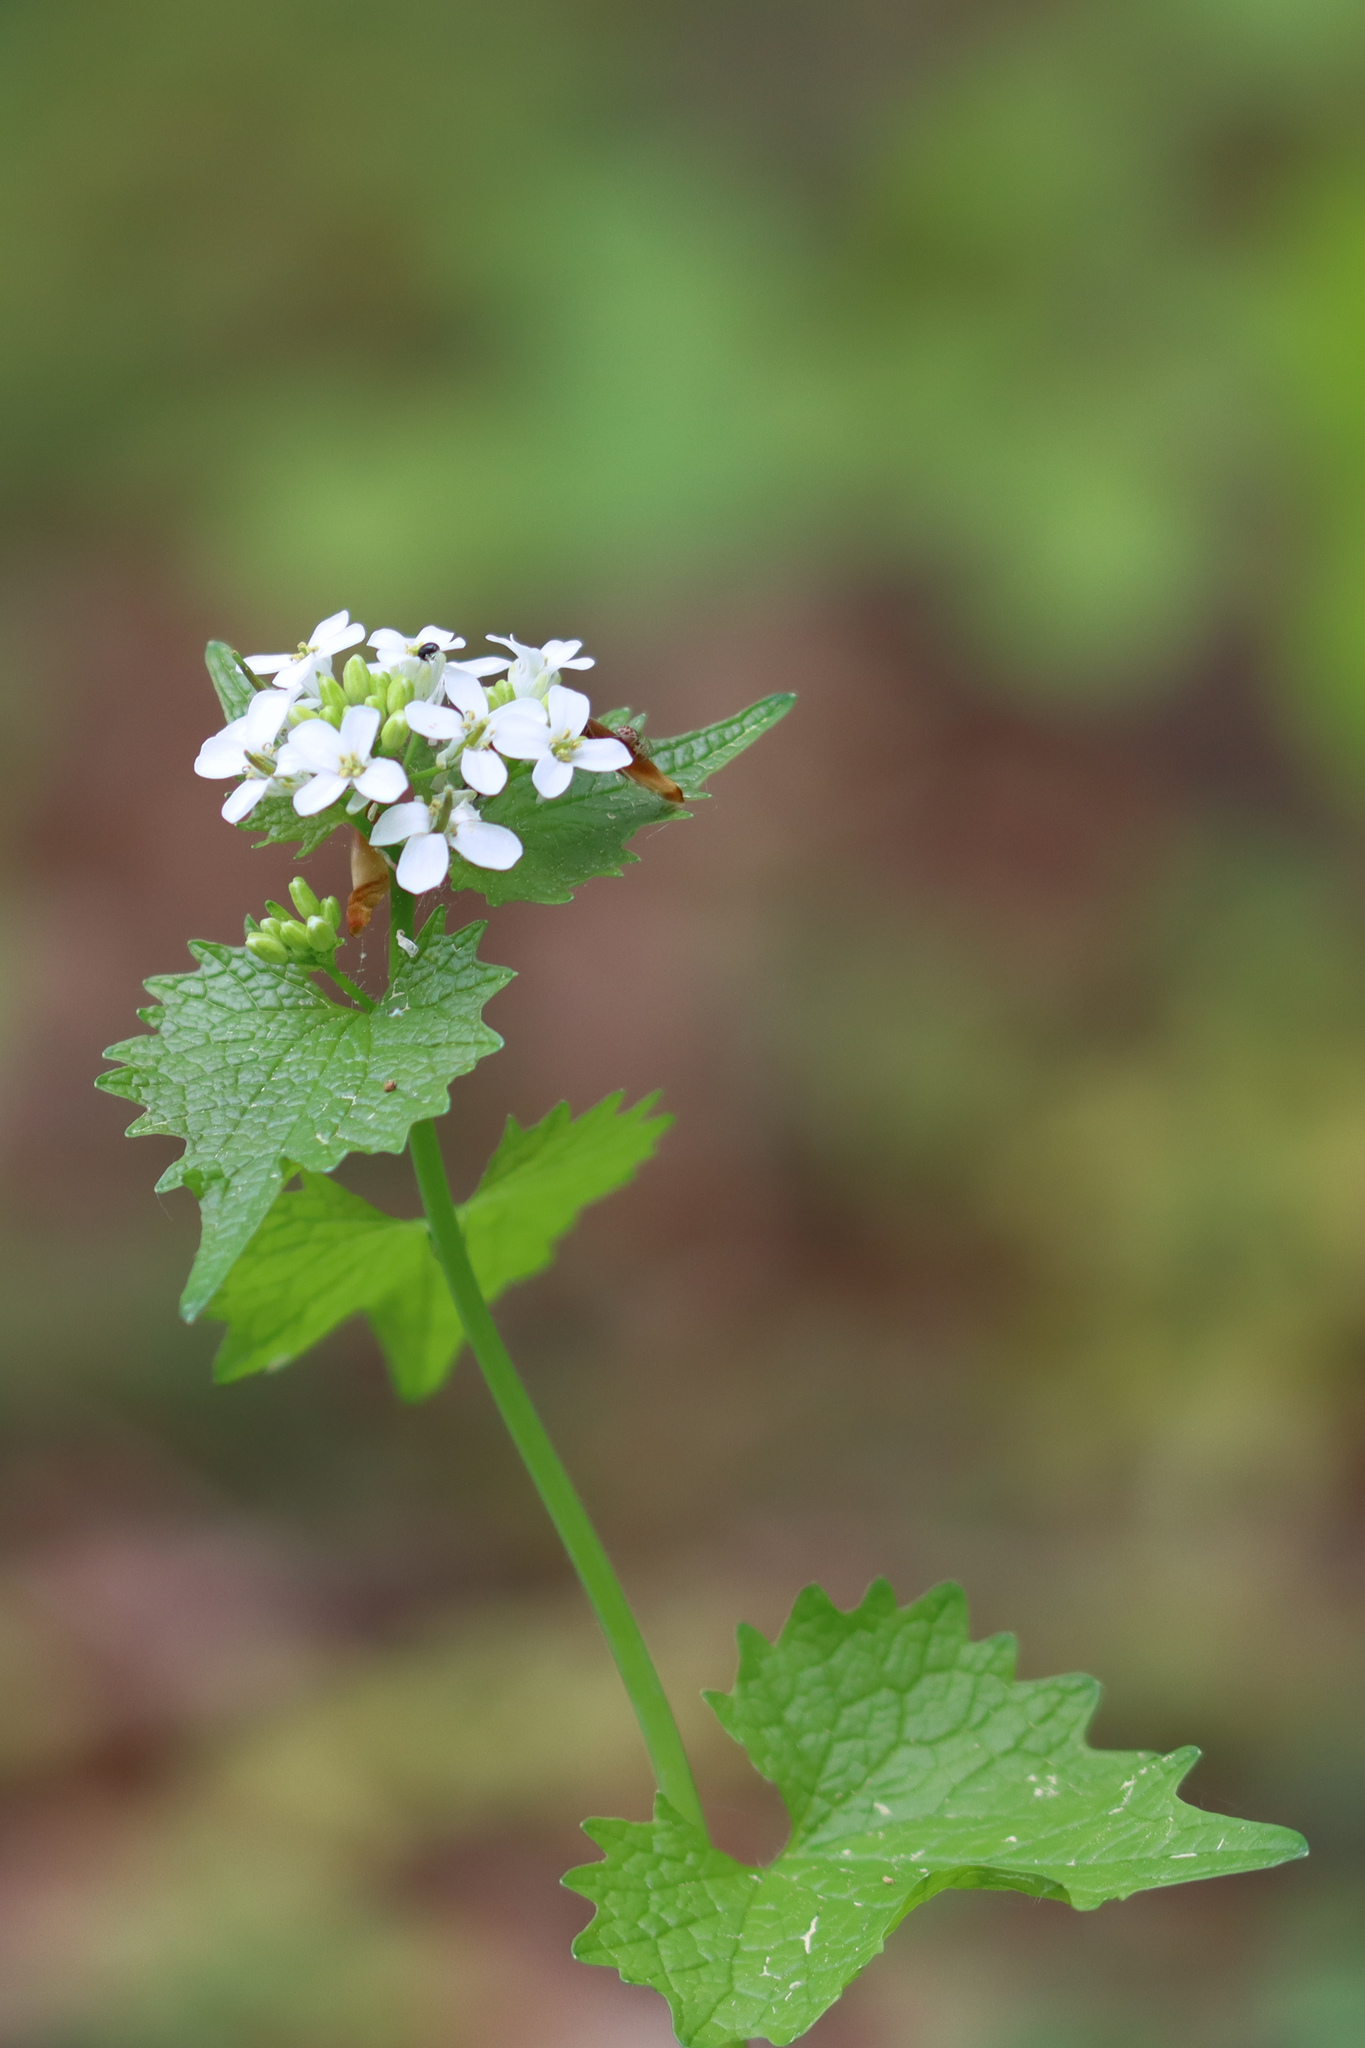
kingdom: Plantae
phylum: Tracheophyta
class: Magnoliopsida
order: Brassicales
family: Brassicaceae
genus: Alliaria
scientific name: Alliaria petiolata
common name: Garlic mustard
